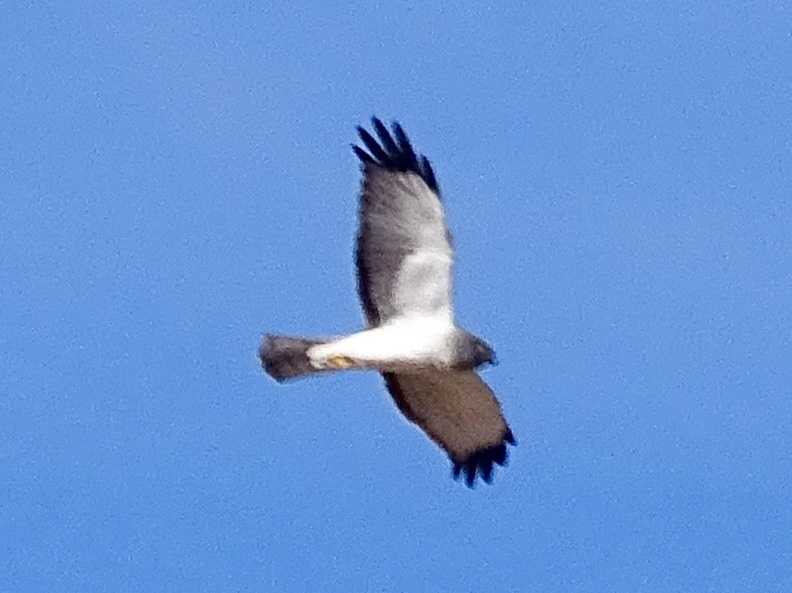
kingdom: Animalia
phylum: Chordata
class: Aves
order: Accipitriformes
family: Accipitridae
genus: Circus
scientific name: Circus cyaneus
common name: Hen harrier
